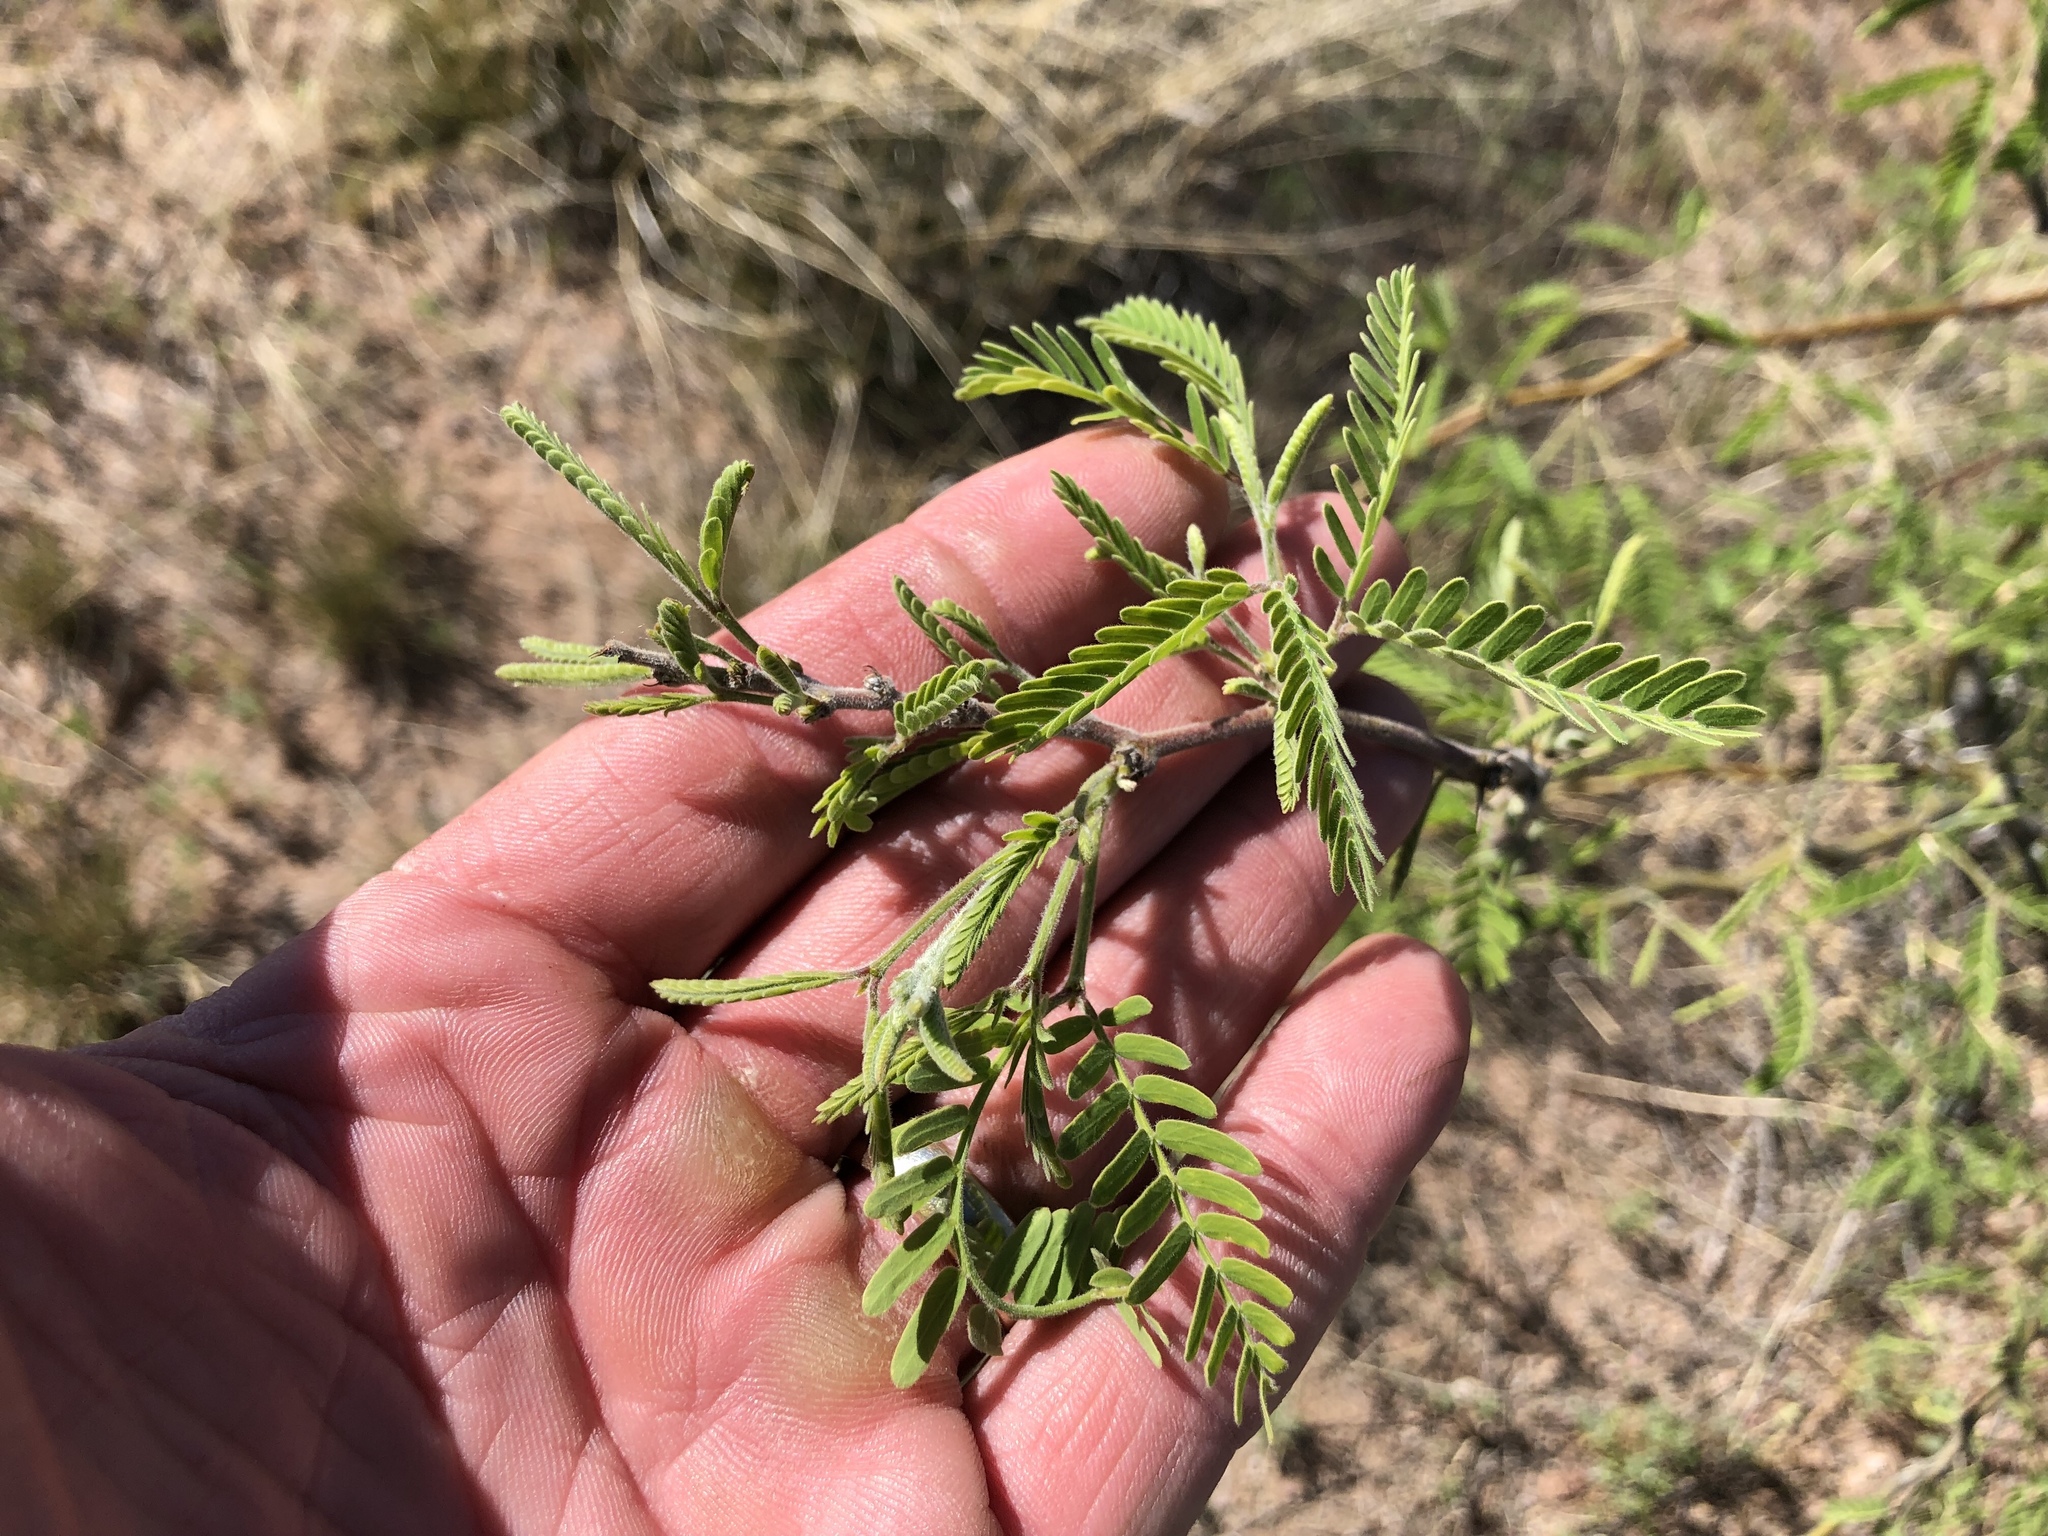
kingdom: Plantae
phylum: Tracheophyta
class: Magnoliopsida
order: Fabales
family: Fabaceae
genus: Prosopis
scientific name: Prosopis velutina
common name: Velvet mesquite
